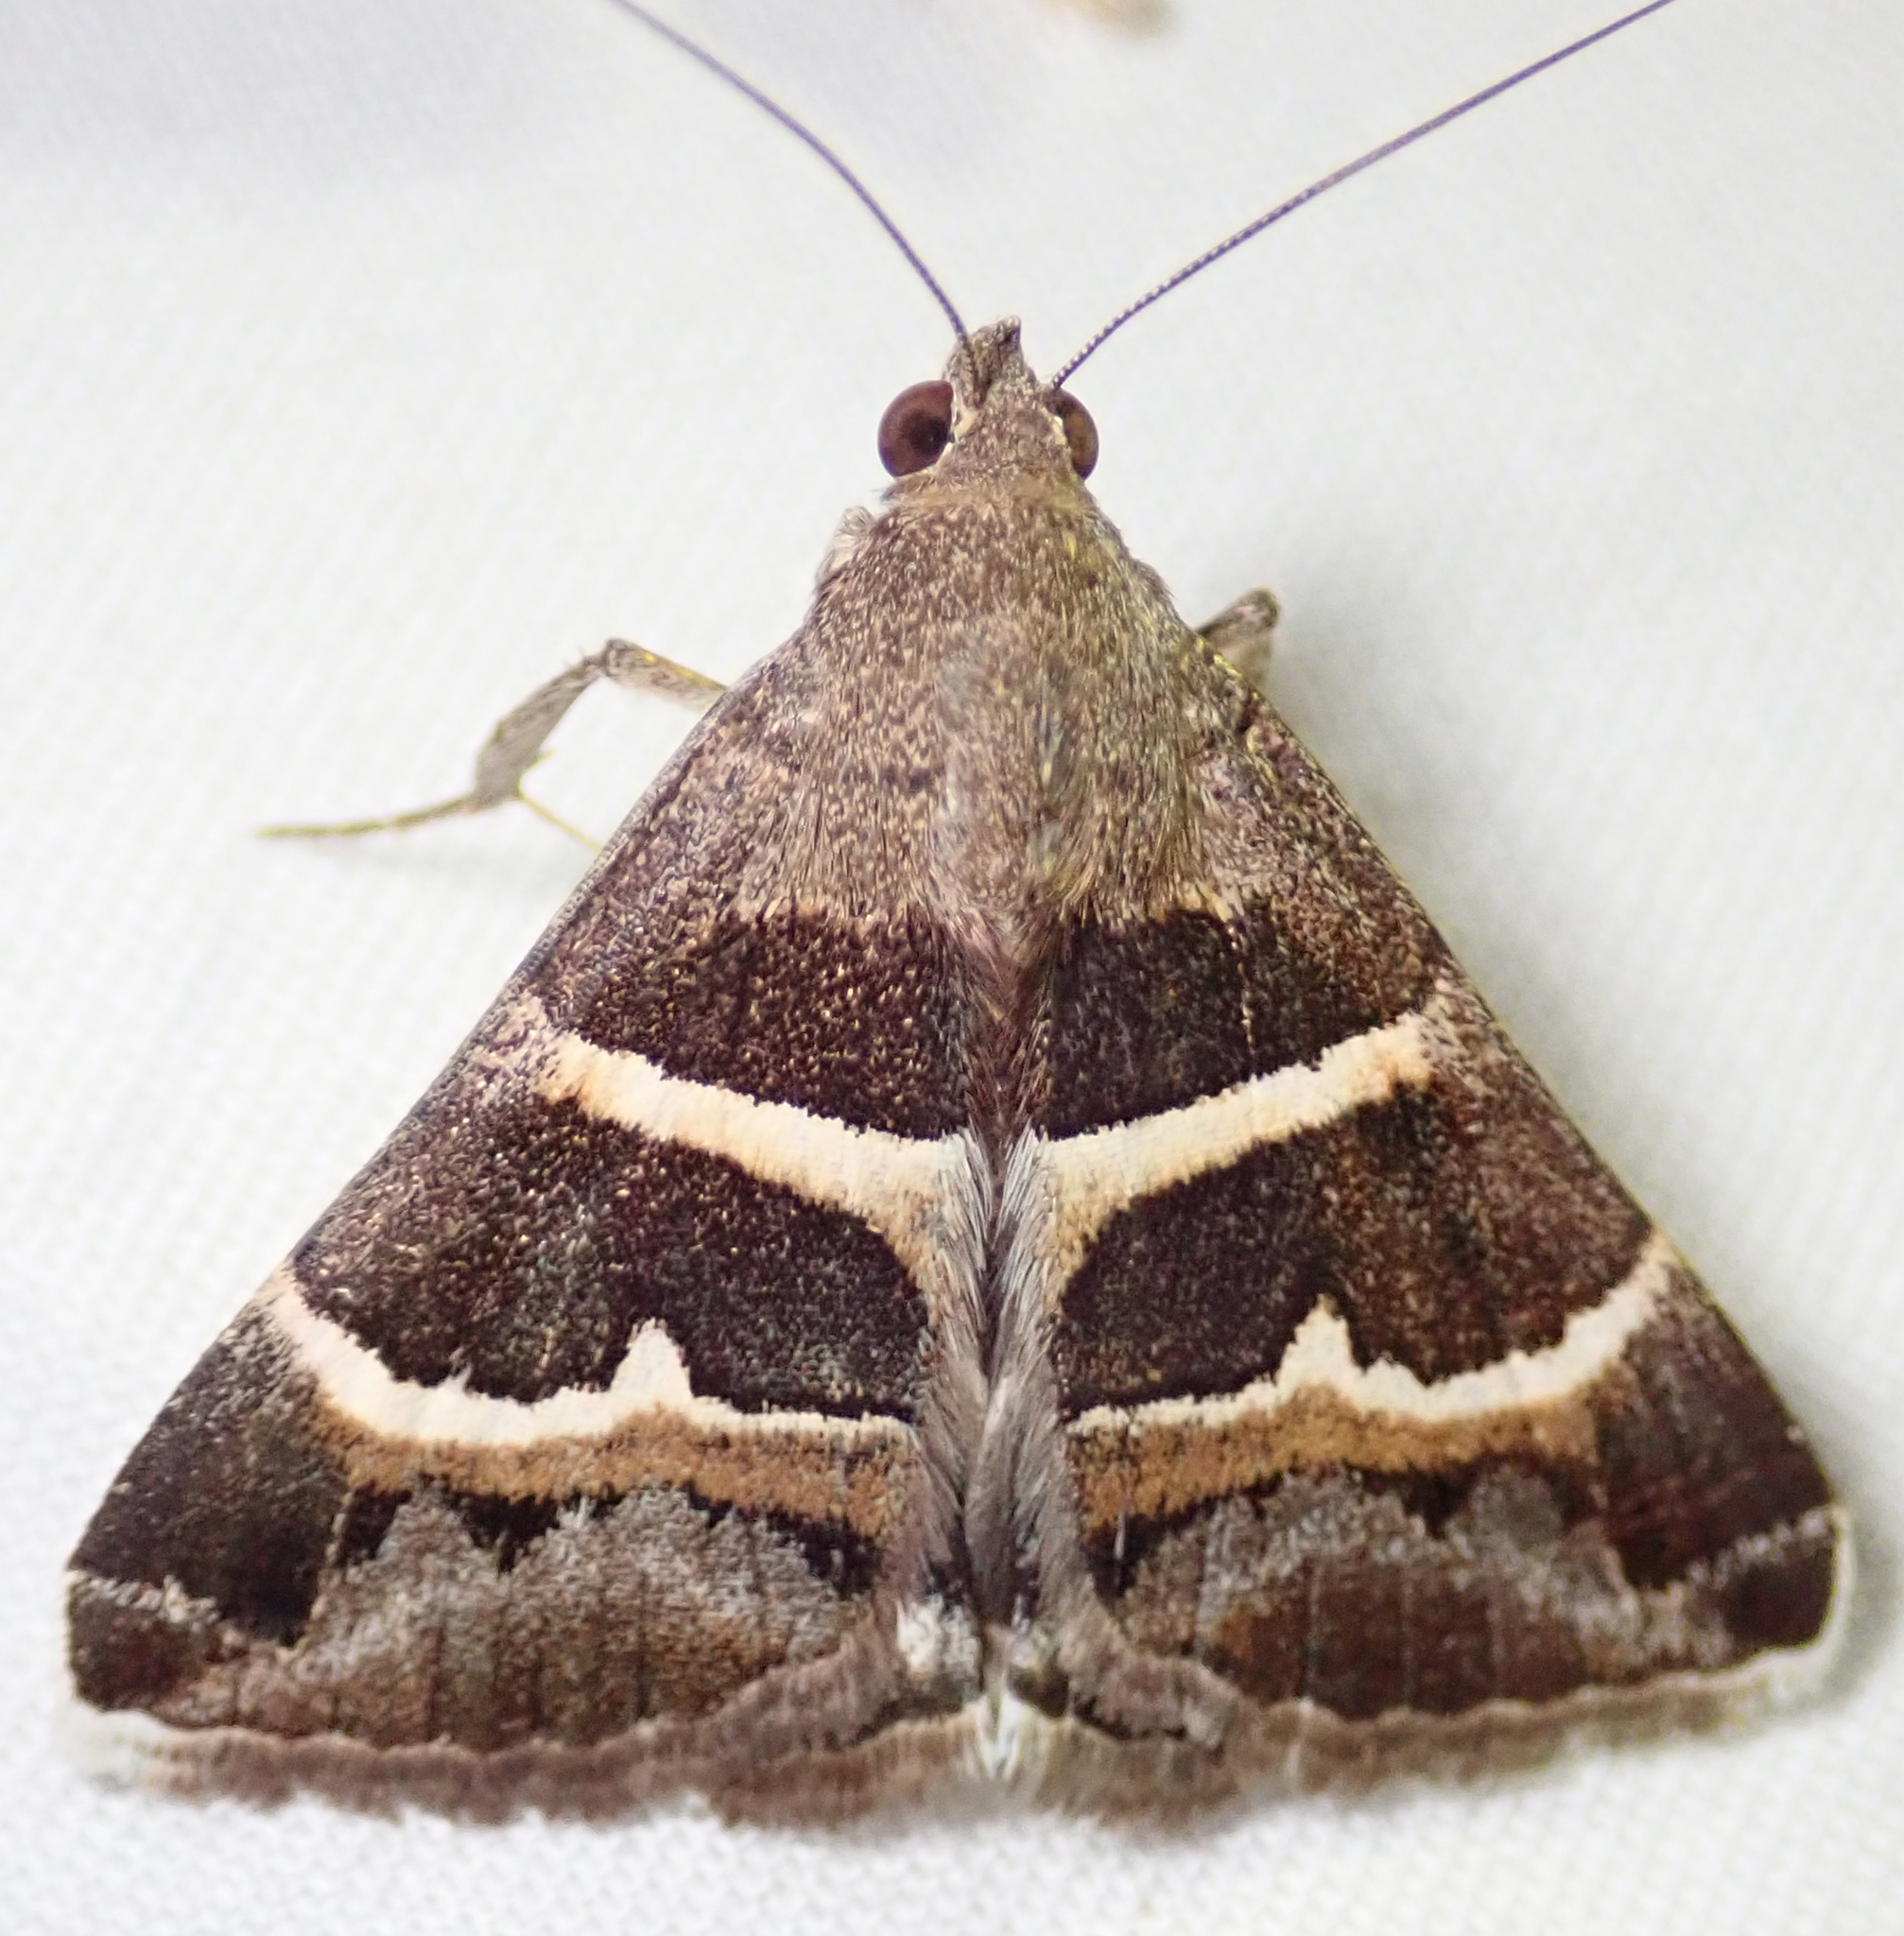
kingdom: Animalia
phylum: Arthropoda
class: Insecta
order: Lepidoptera
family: Erebidae
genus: Grammodes
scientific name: Grammodes stolida
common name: Geometrician
